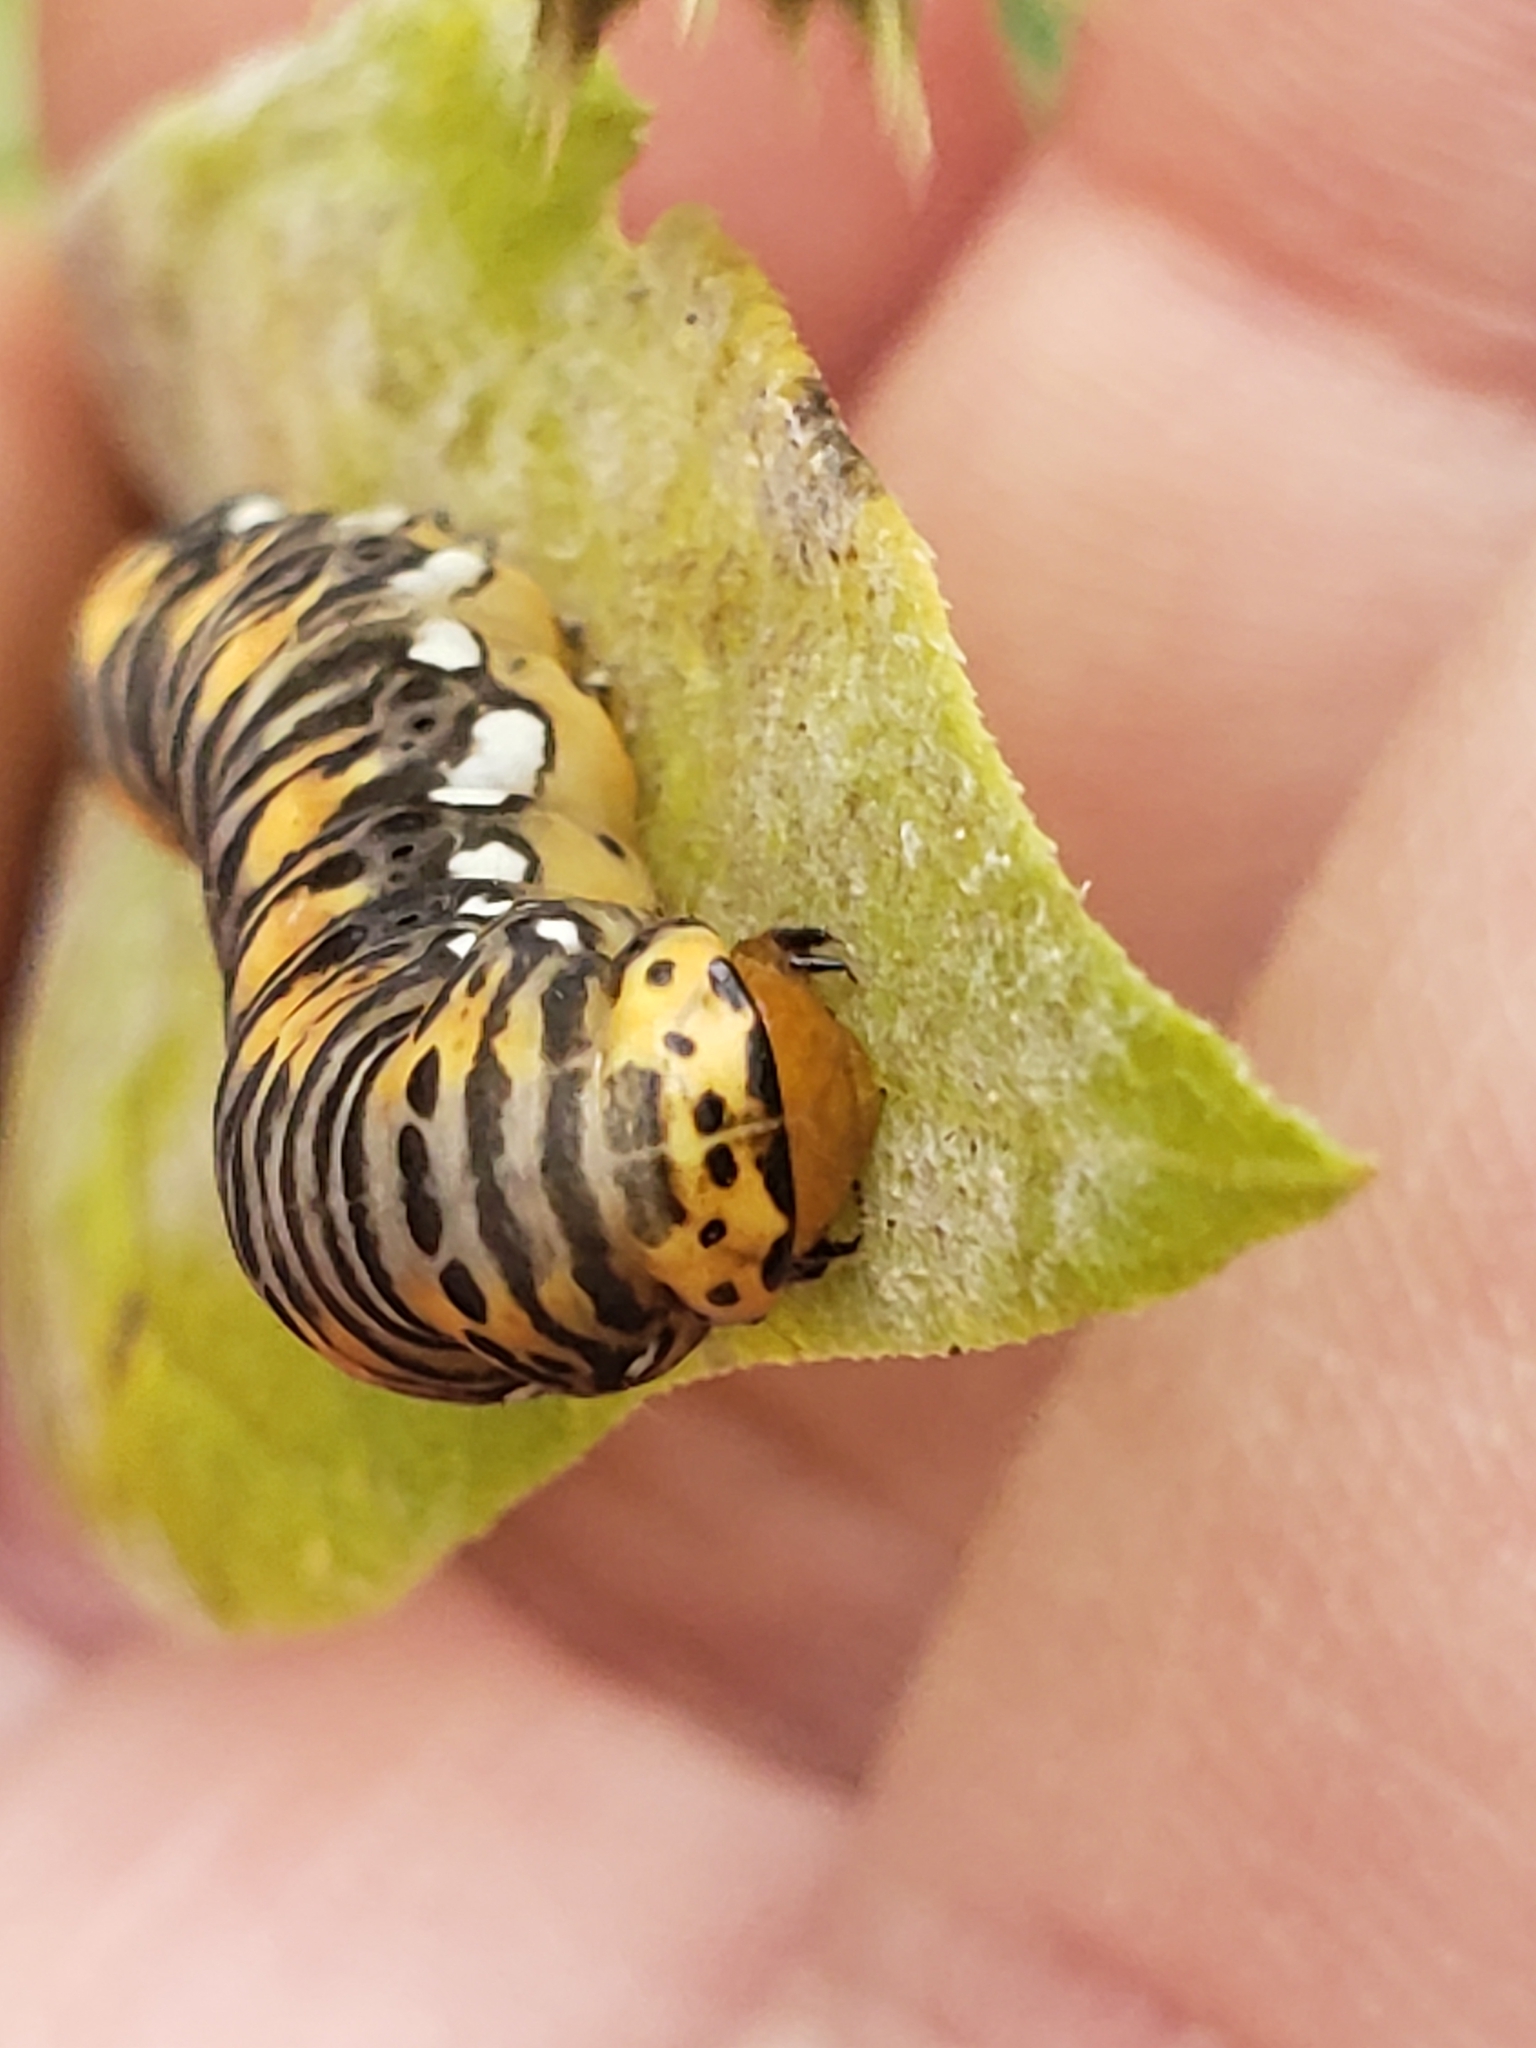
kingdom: Animalia
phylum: Arthropoda
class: Insecta
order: Lepidoptera
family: Noctuidae
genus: Basilodes
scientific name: Basilodes pepita
